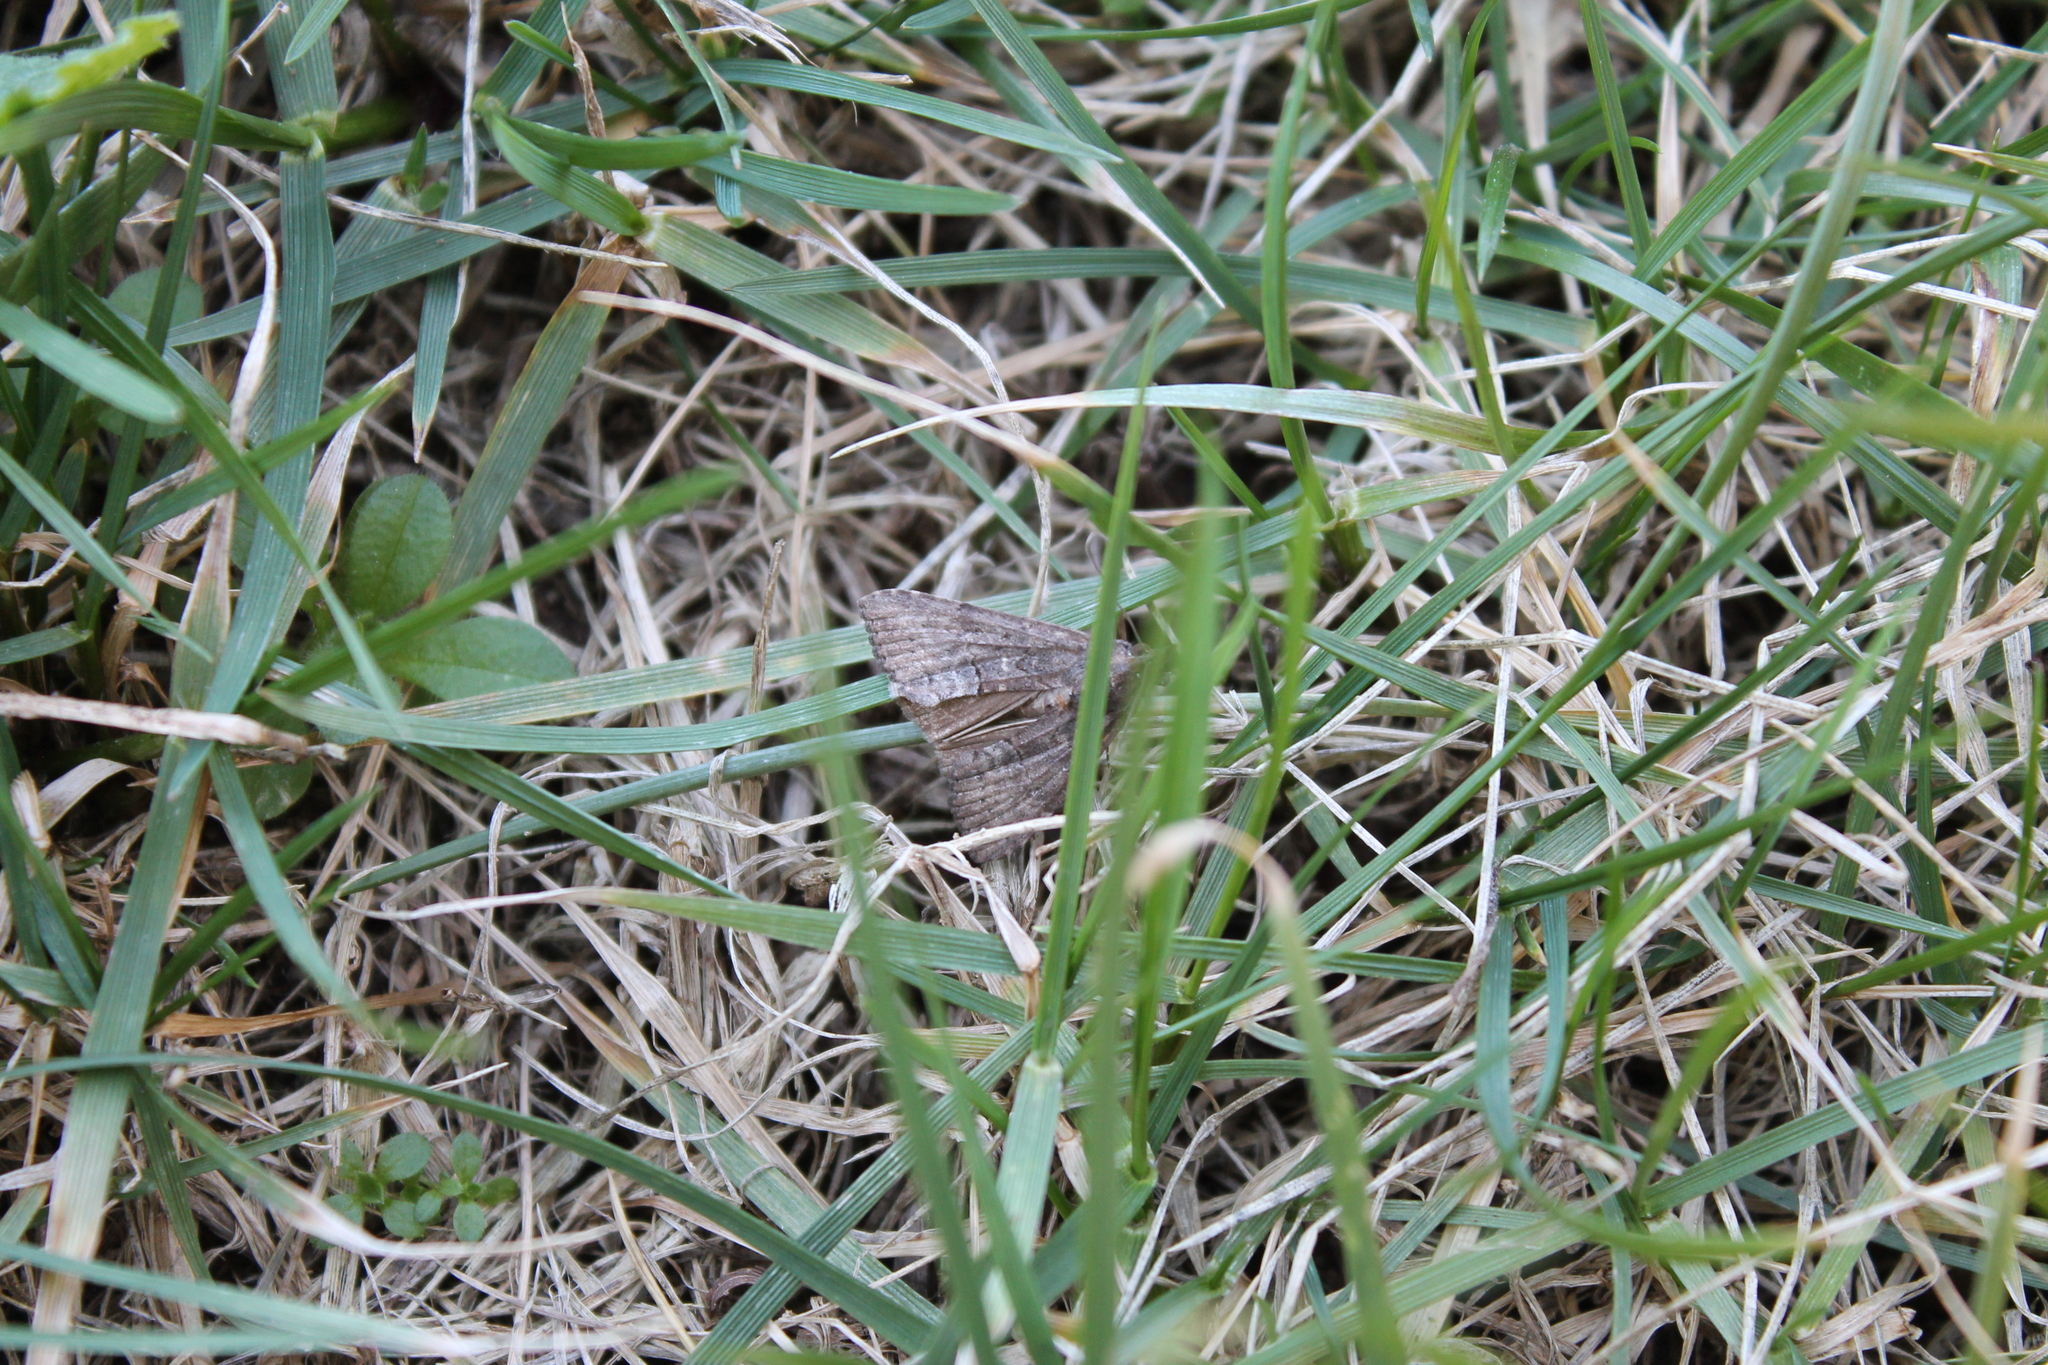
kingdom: Animalia
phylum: Arthropoda
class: Insecta
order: Lepidoptera
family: Erebidae
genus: Hypena
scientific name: Hypena scabra
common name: Green cloverworm
